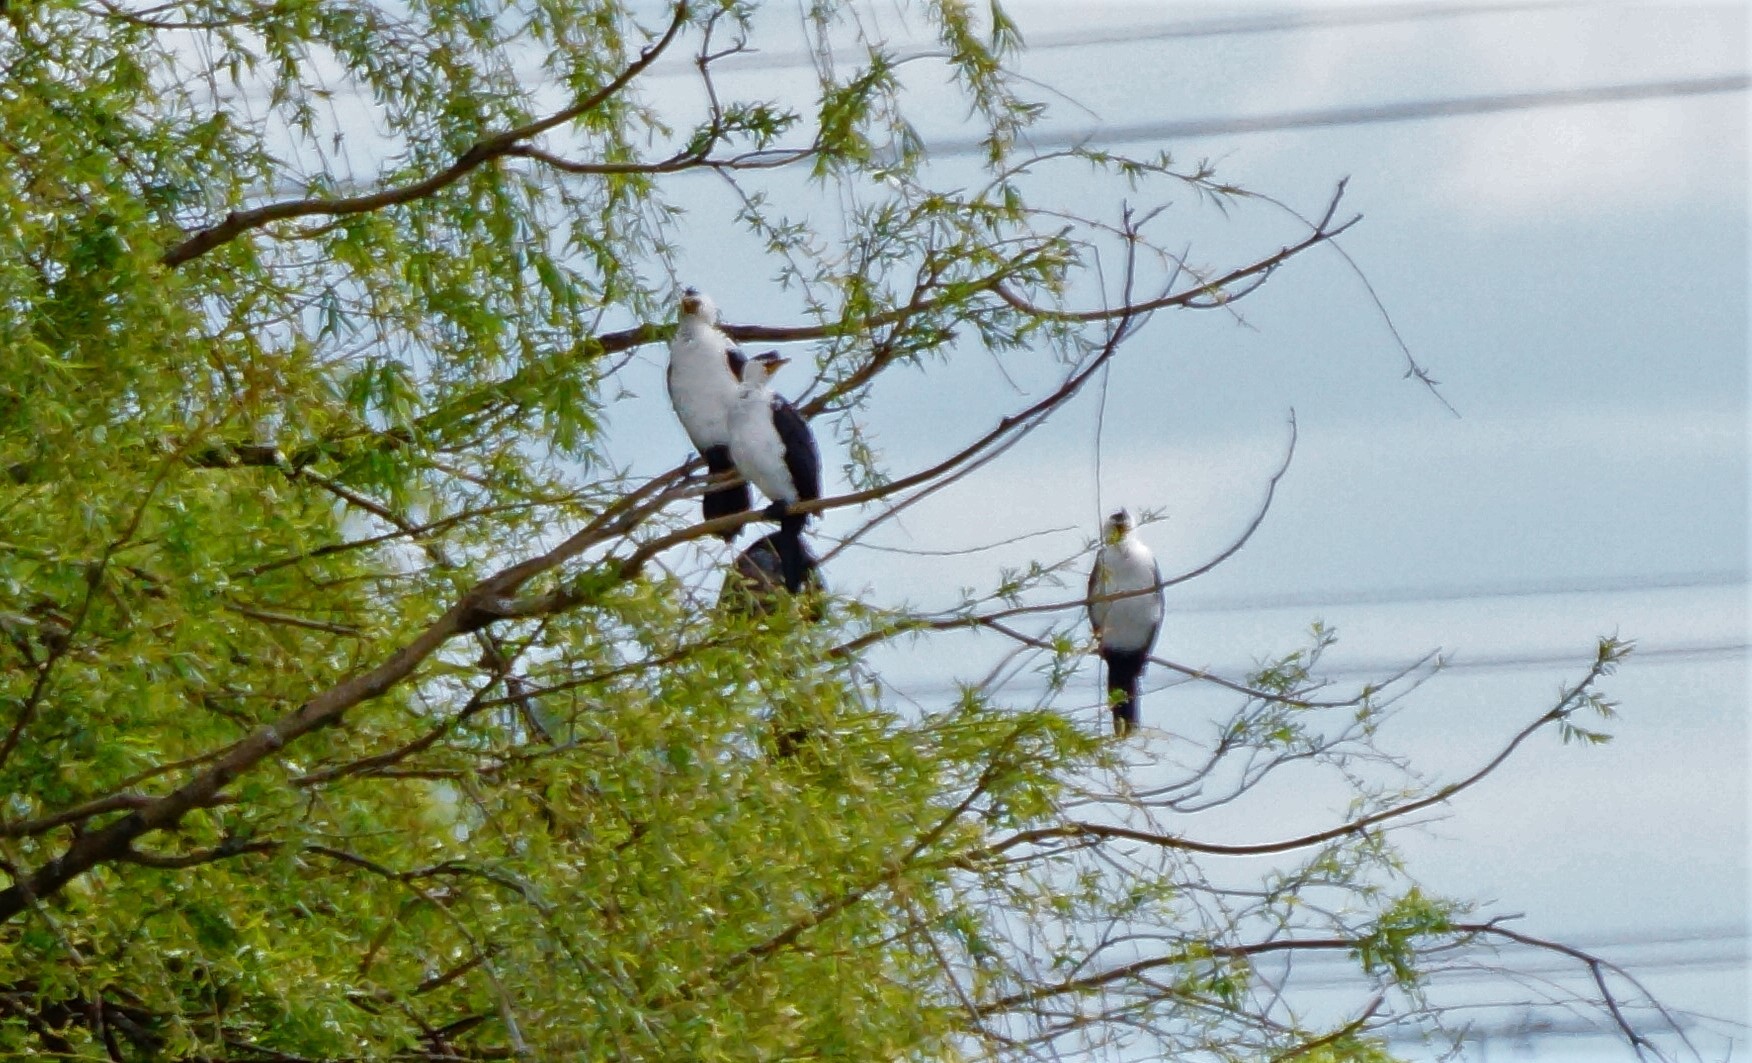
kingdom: Animalia
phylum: Chordata
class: Aves
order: Suliformes
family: Phalacrocoracidae
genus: Microcarbo
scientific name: Microcarbo melanoleucos
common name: Little pied cormorant
